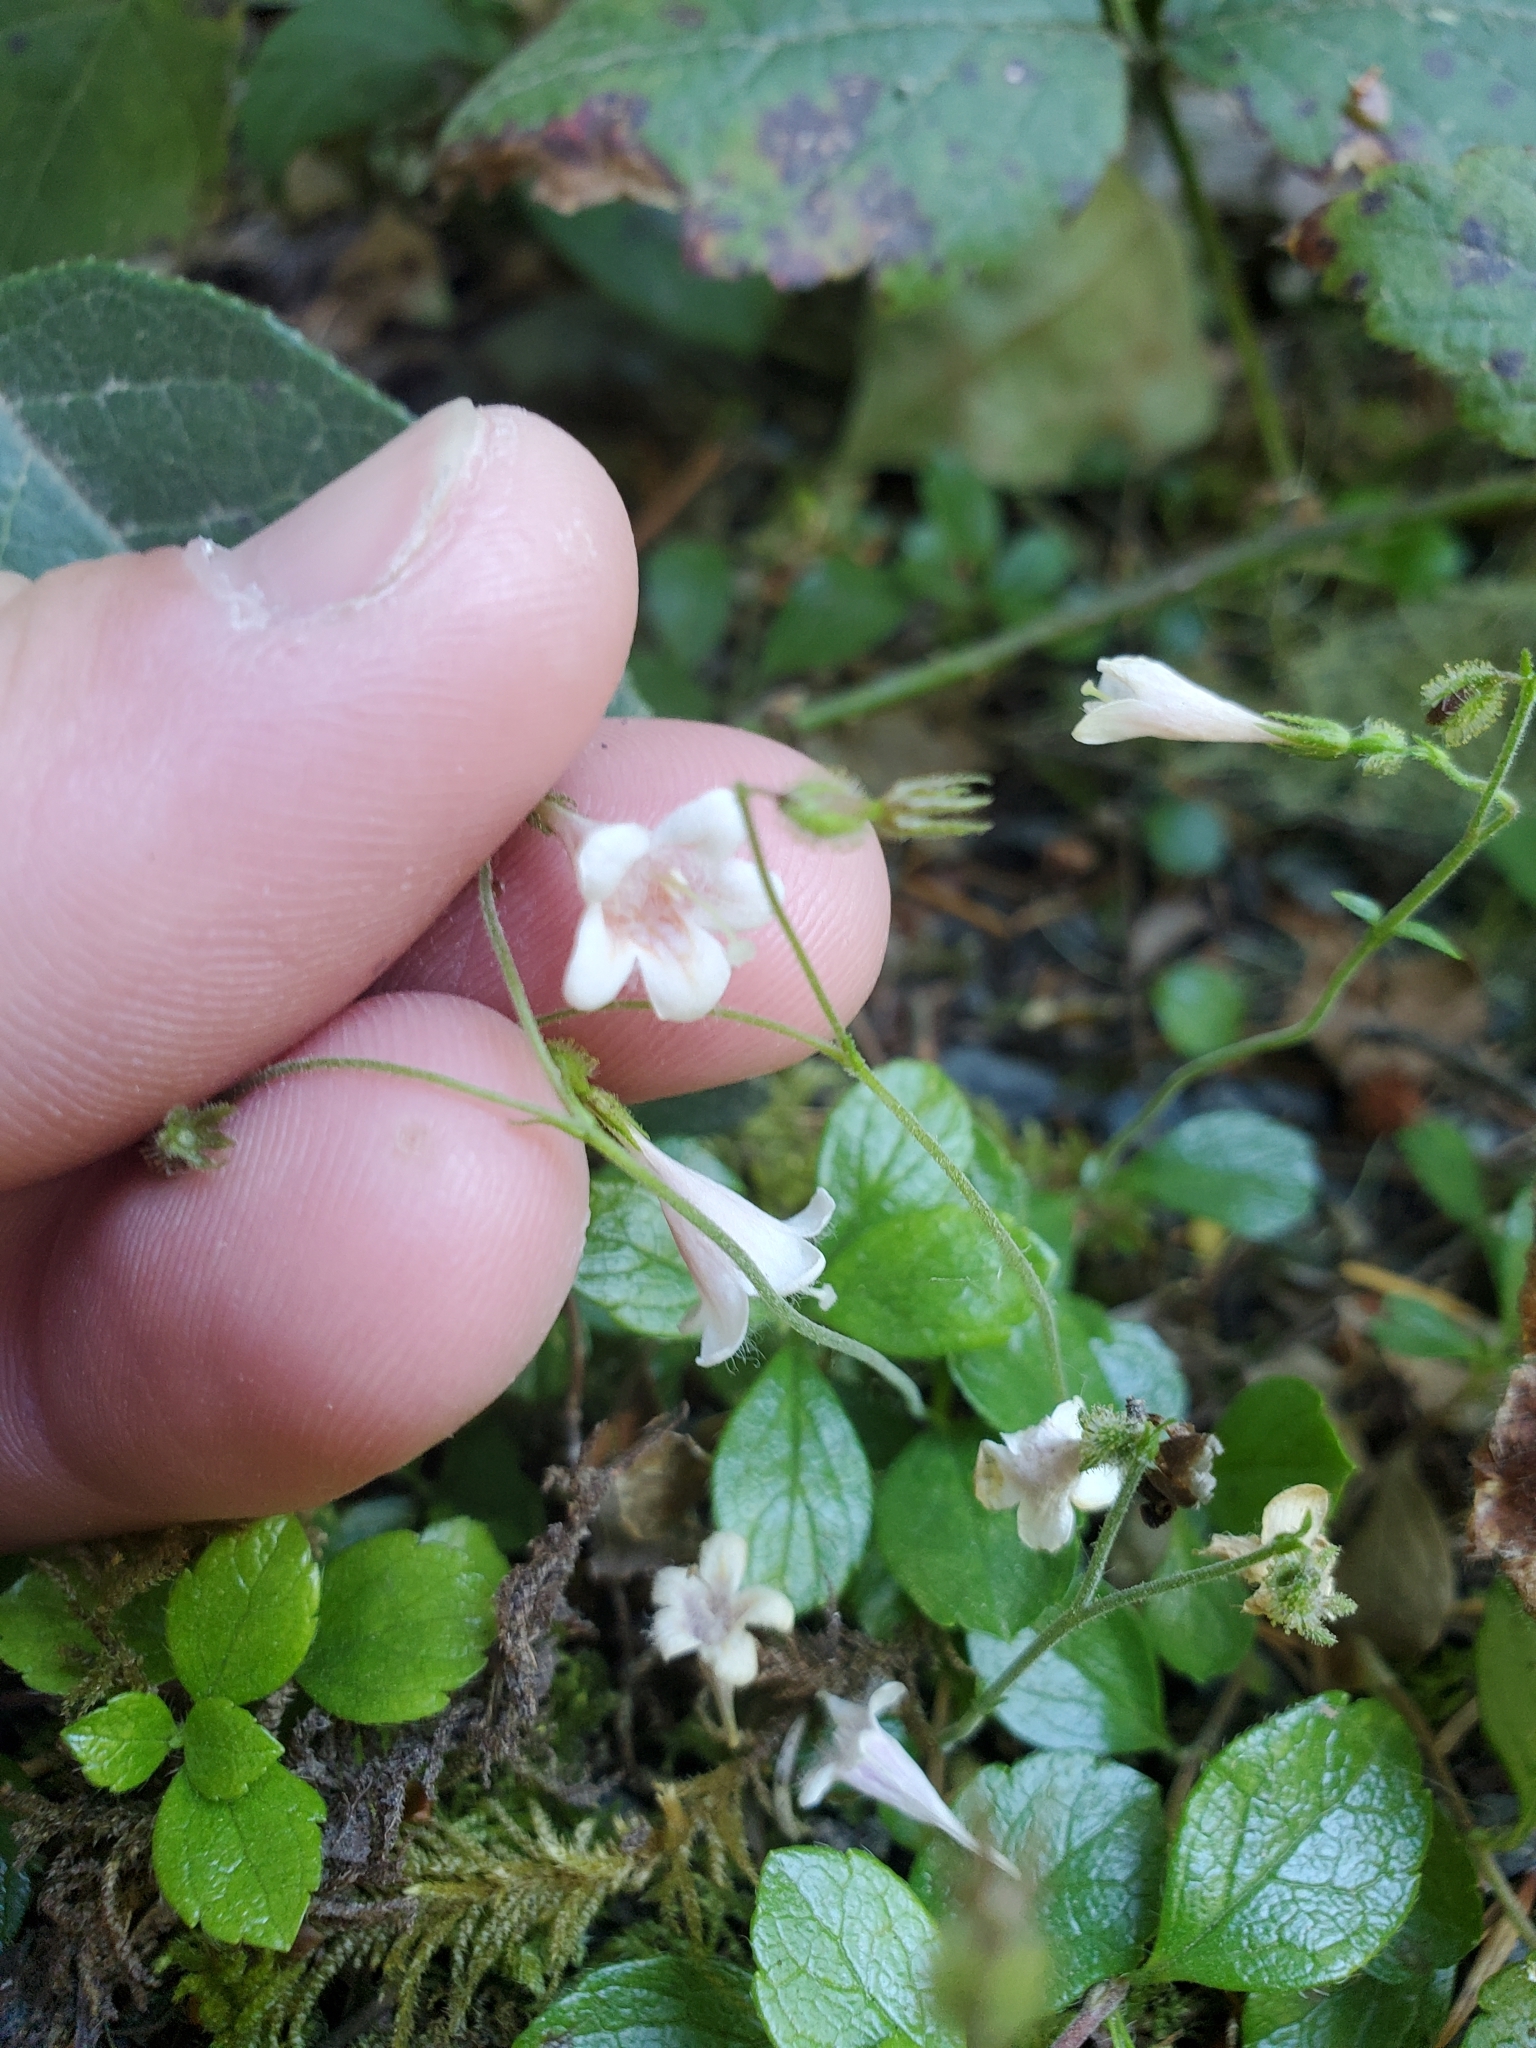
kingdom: Plantae
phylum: Tracheophyta
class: Magnoliopsida
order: Dipsacales
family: Caprifoliaceae
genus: Linnaea
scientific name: Linnaea borealis
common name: Twinflower
